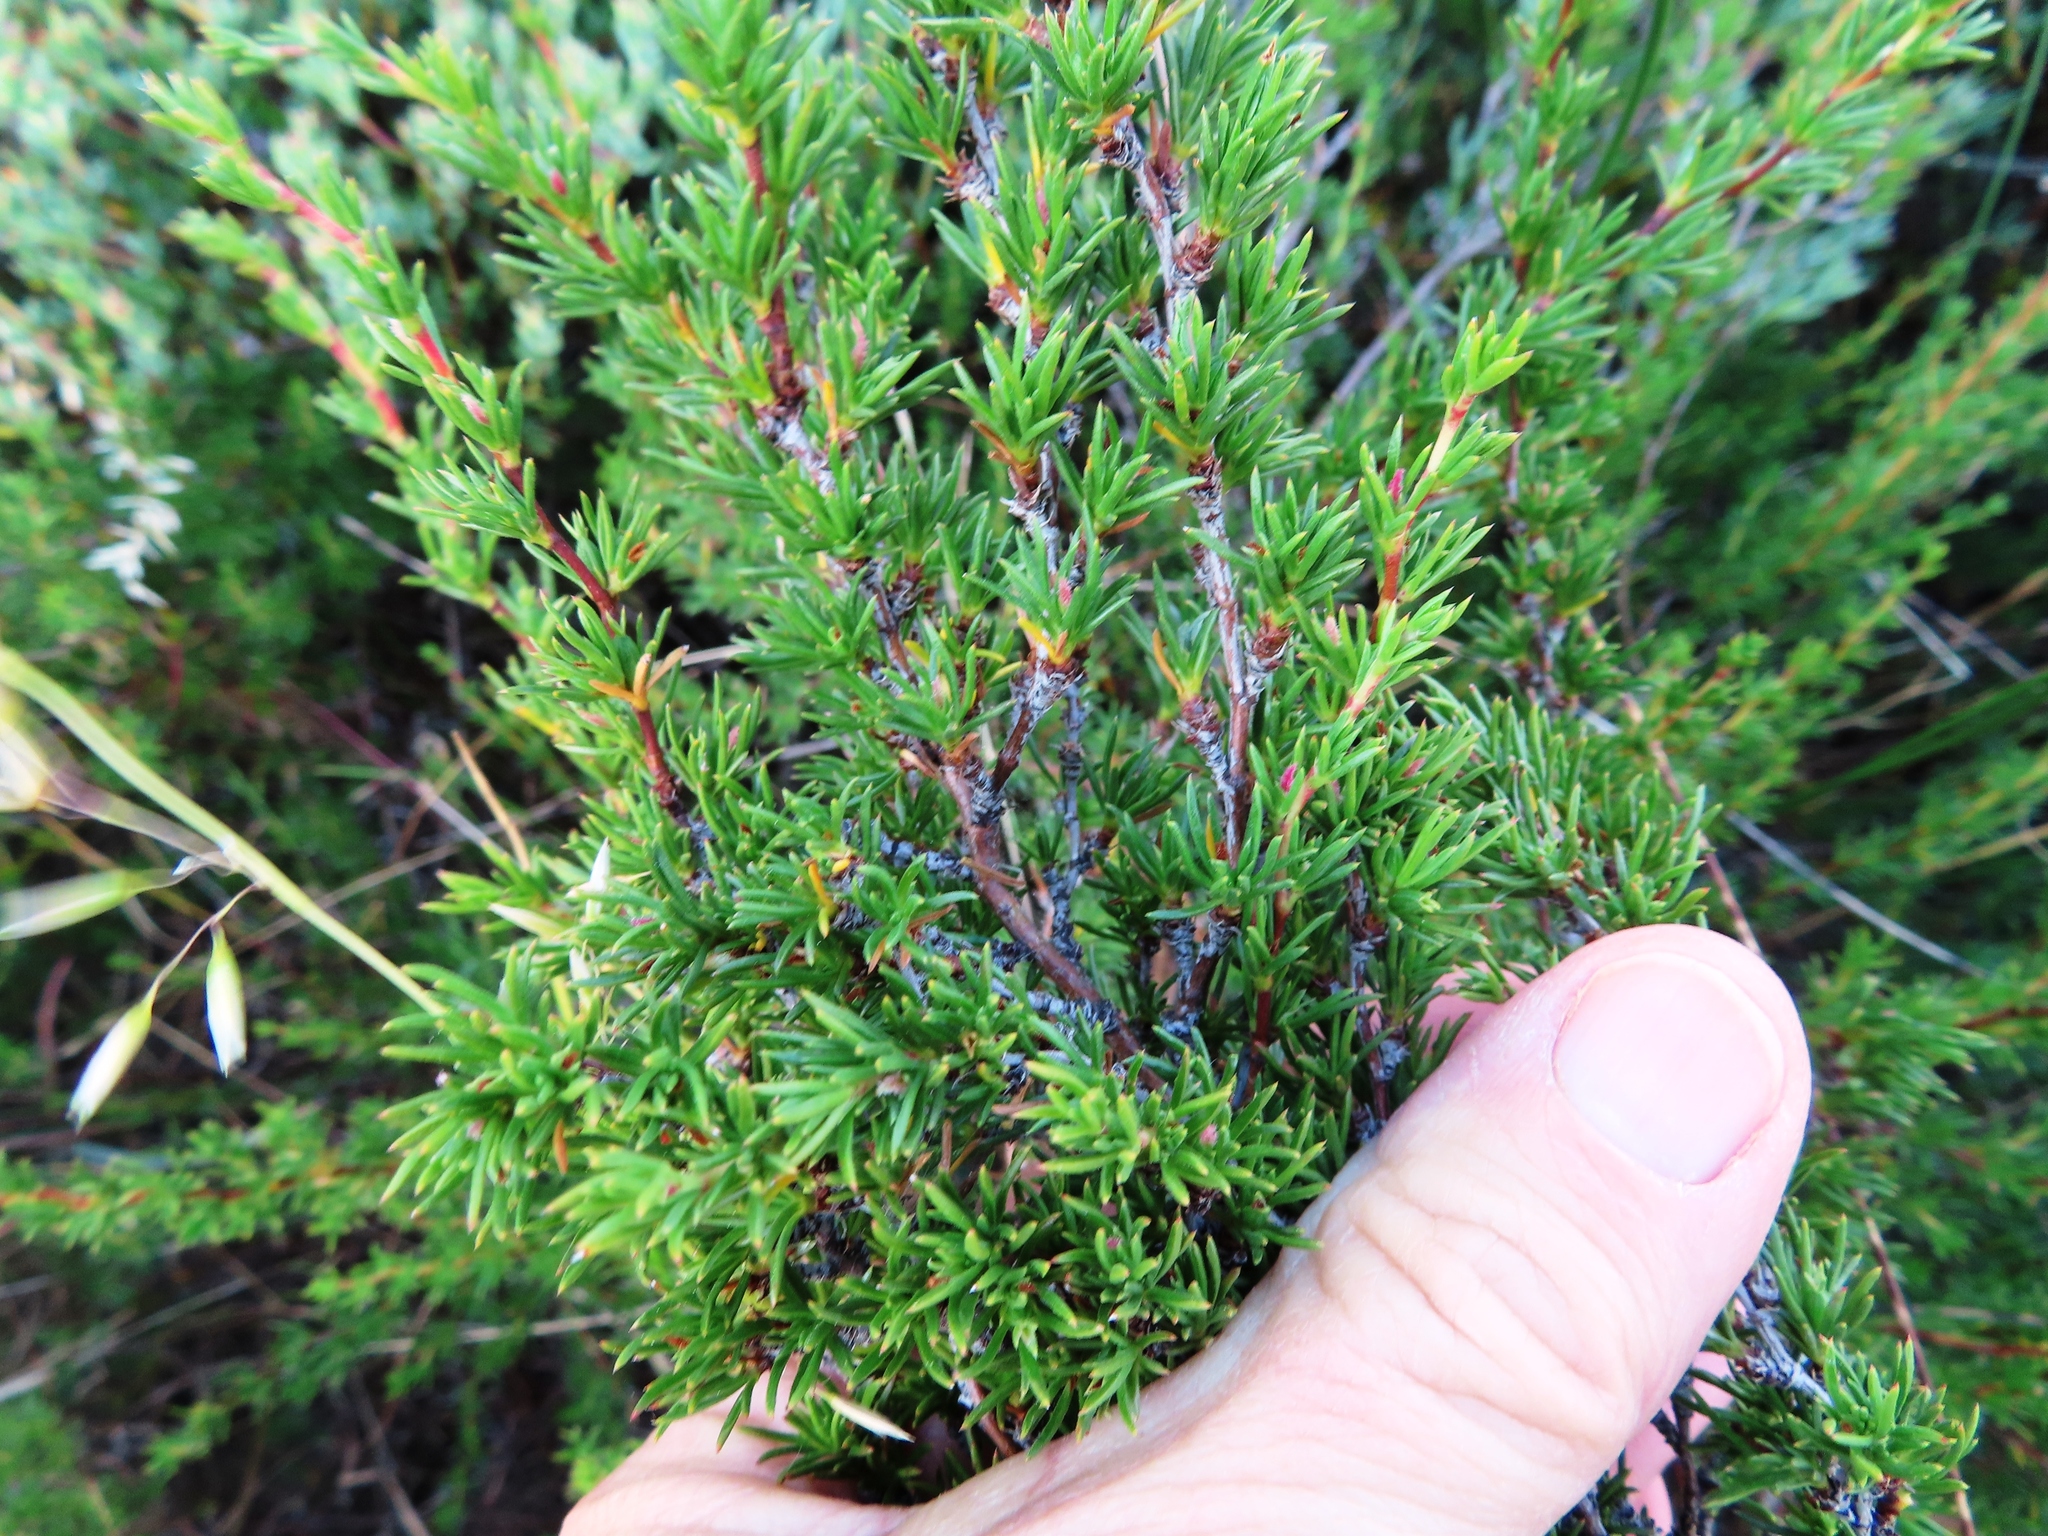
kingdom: Plantae
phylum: Tracheophyta
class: Magnoliopsida
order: Rosales
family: Rosaceae
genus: Cliffortia
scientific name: Cliffortia juniperina
